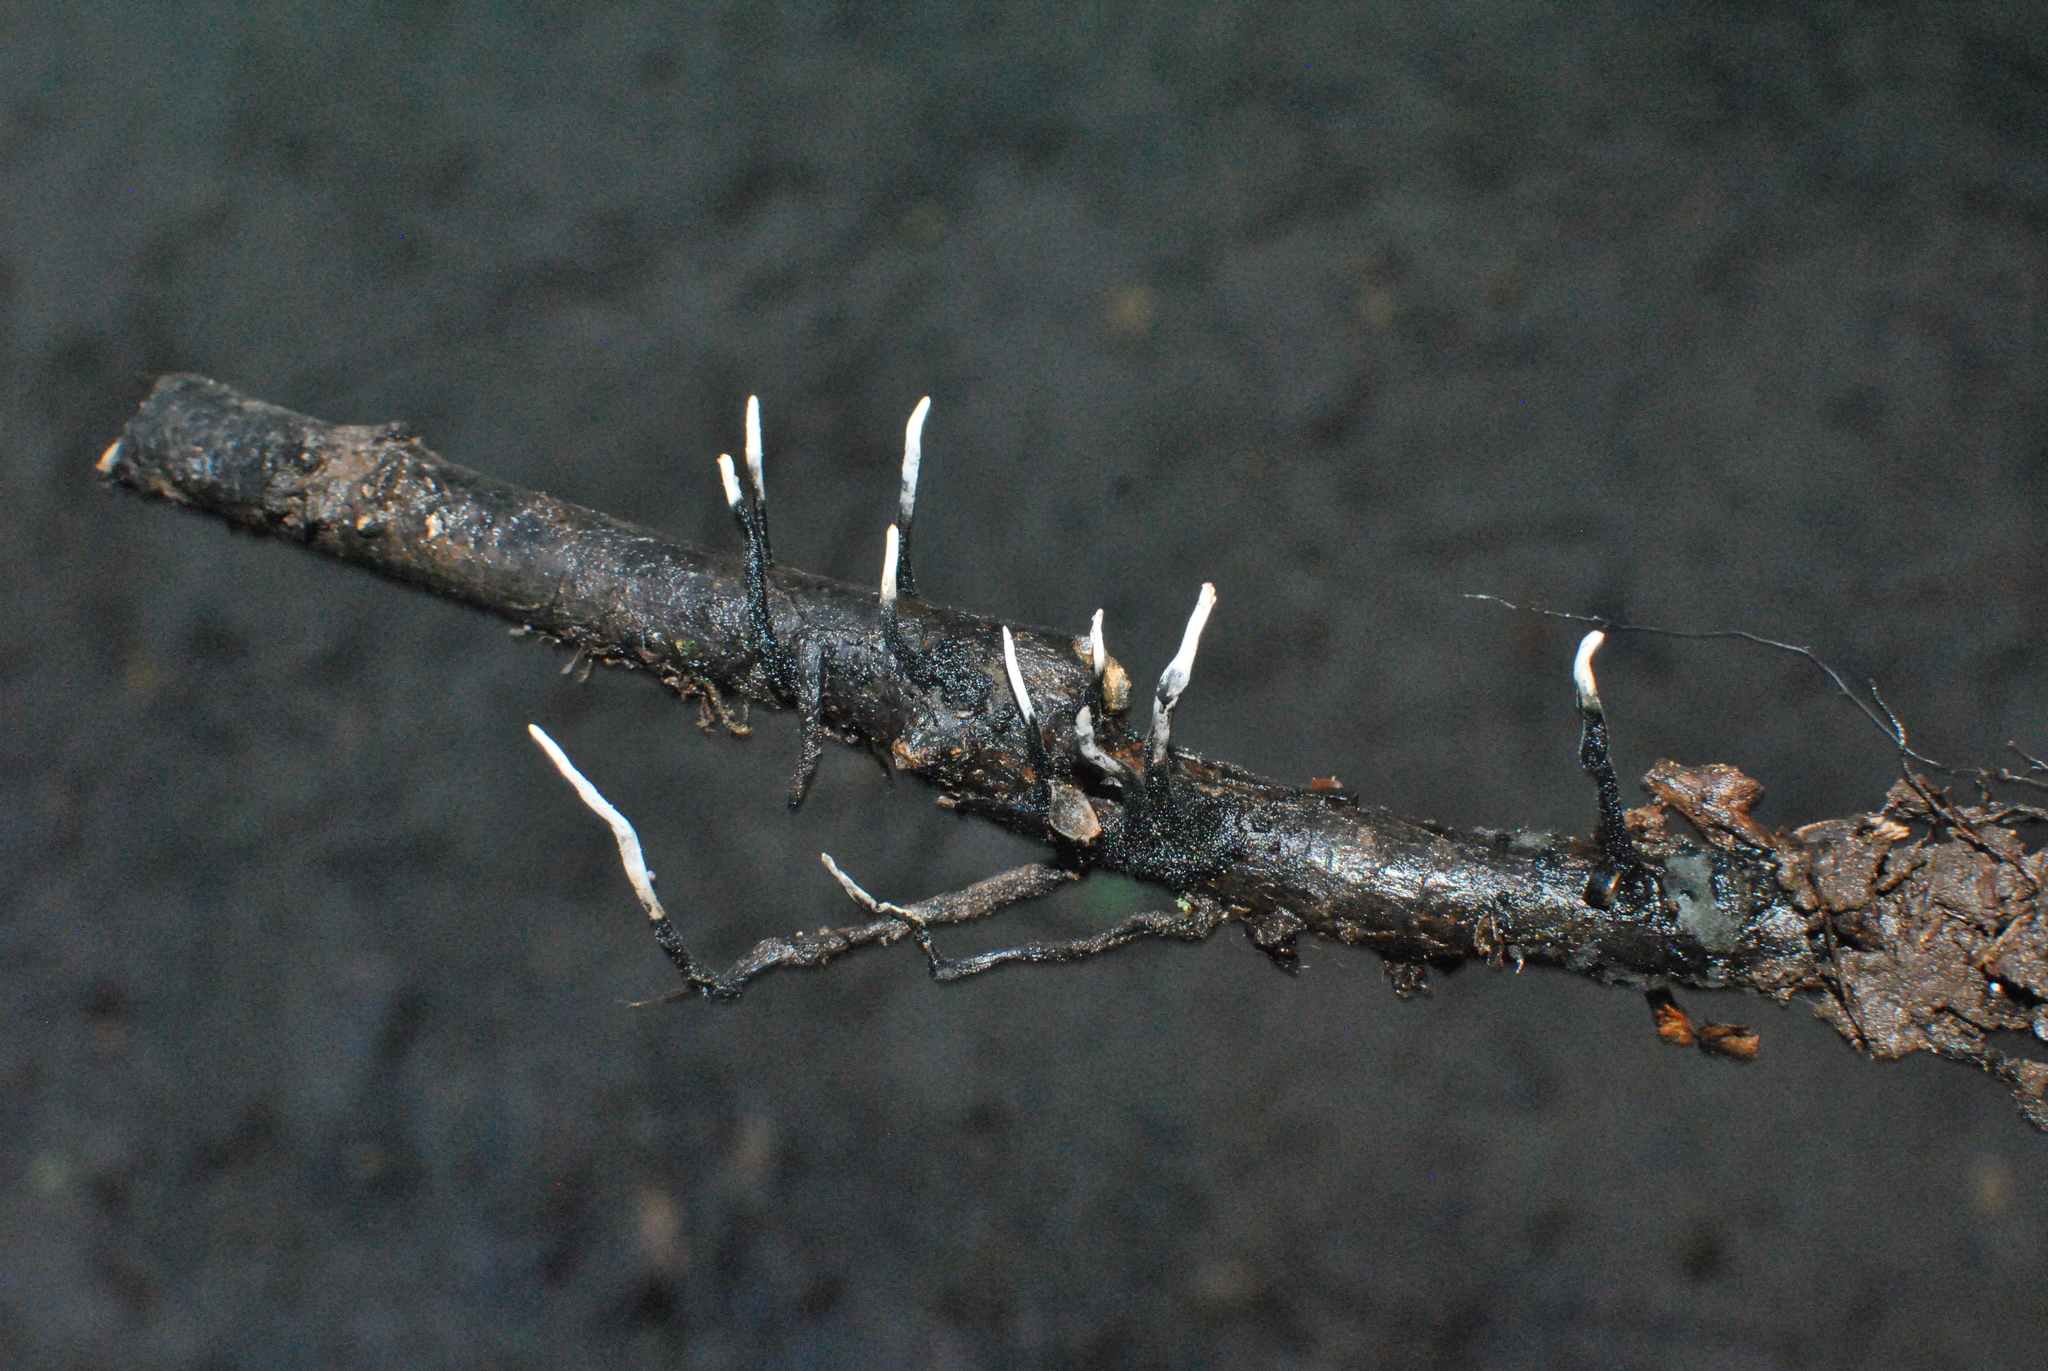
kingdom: Fungi
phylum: Ascomycota
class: Sordariomycetes
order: Xylariales
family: Xylariaceae
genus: Xylaria
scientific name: Xylaria hypoxylon
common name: Candle-snuff fungus
